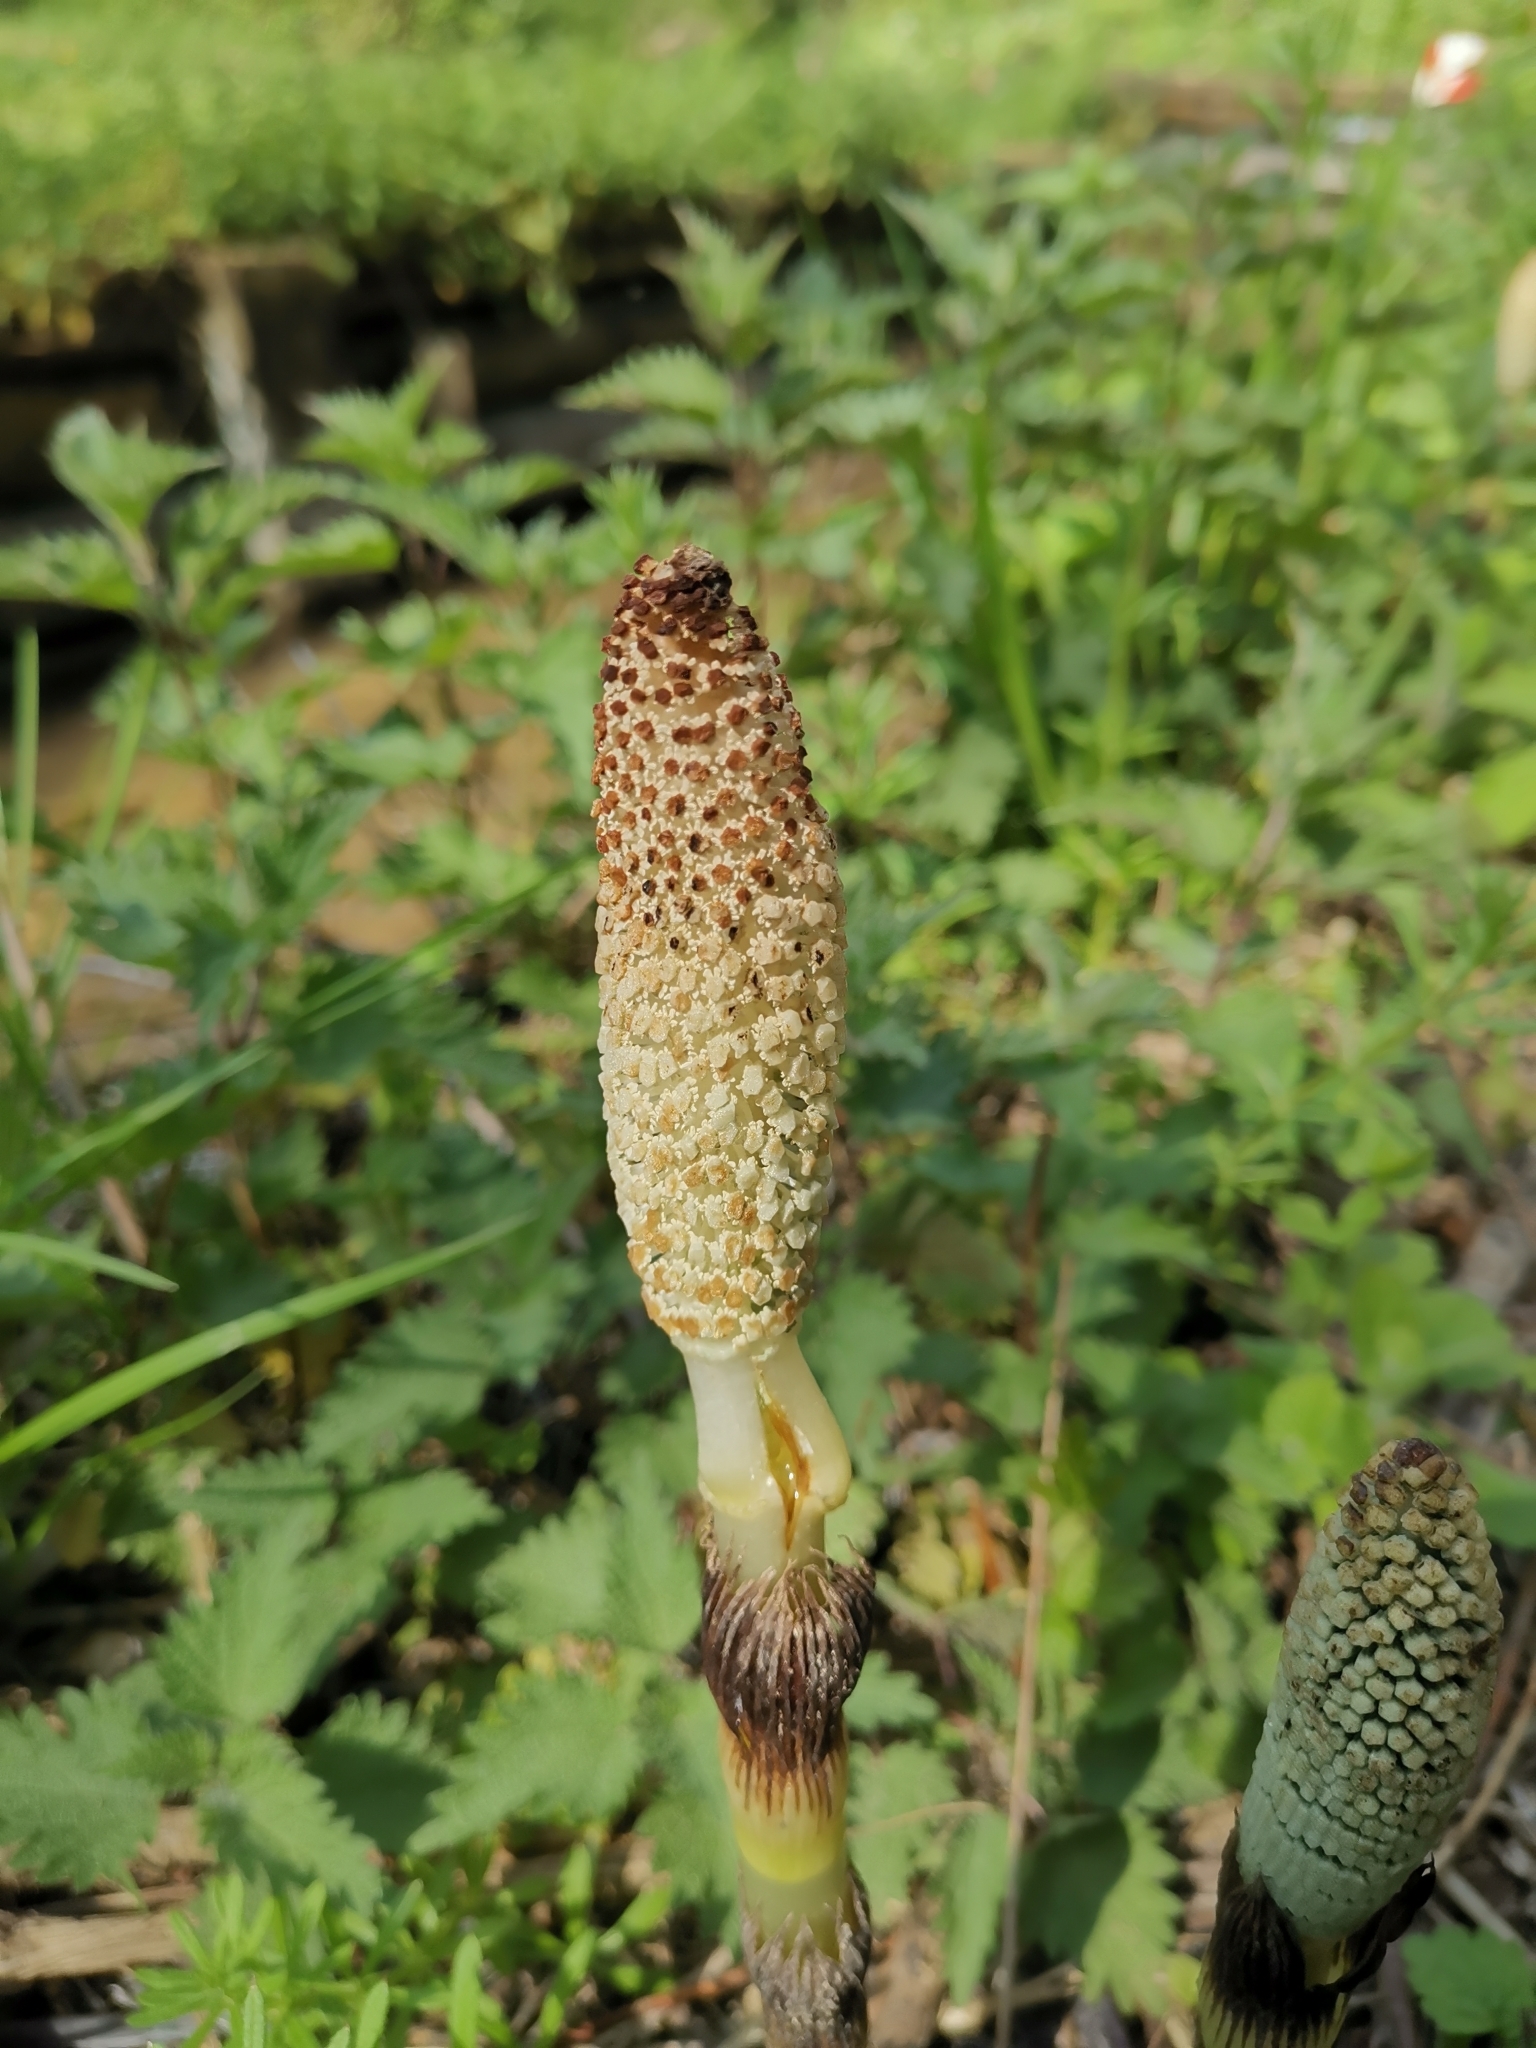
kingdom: Plantae
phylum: Tracheophyta
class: Polypodiopsida
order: Equisetales
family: Equisetaceae
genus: Equisetum
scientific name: Equisetum telmateia
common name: Great horsetail
